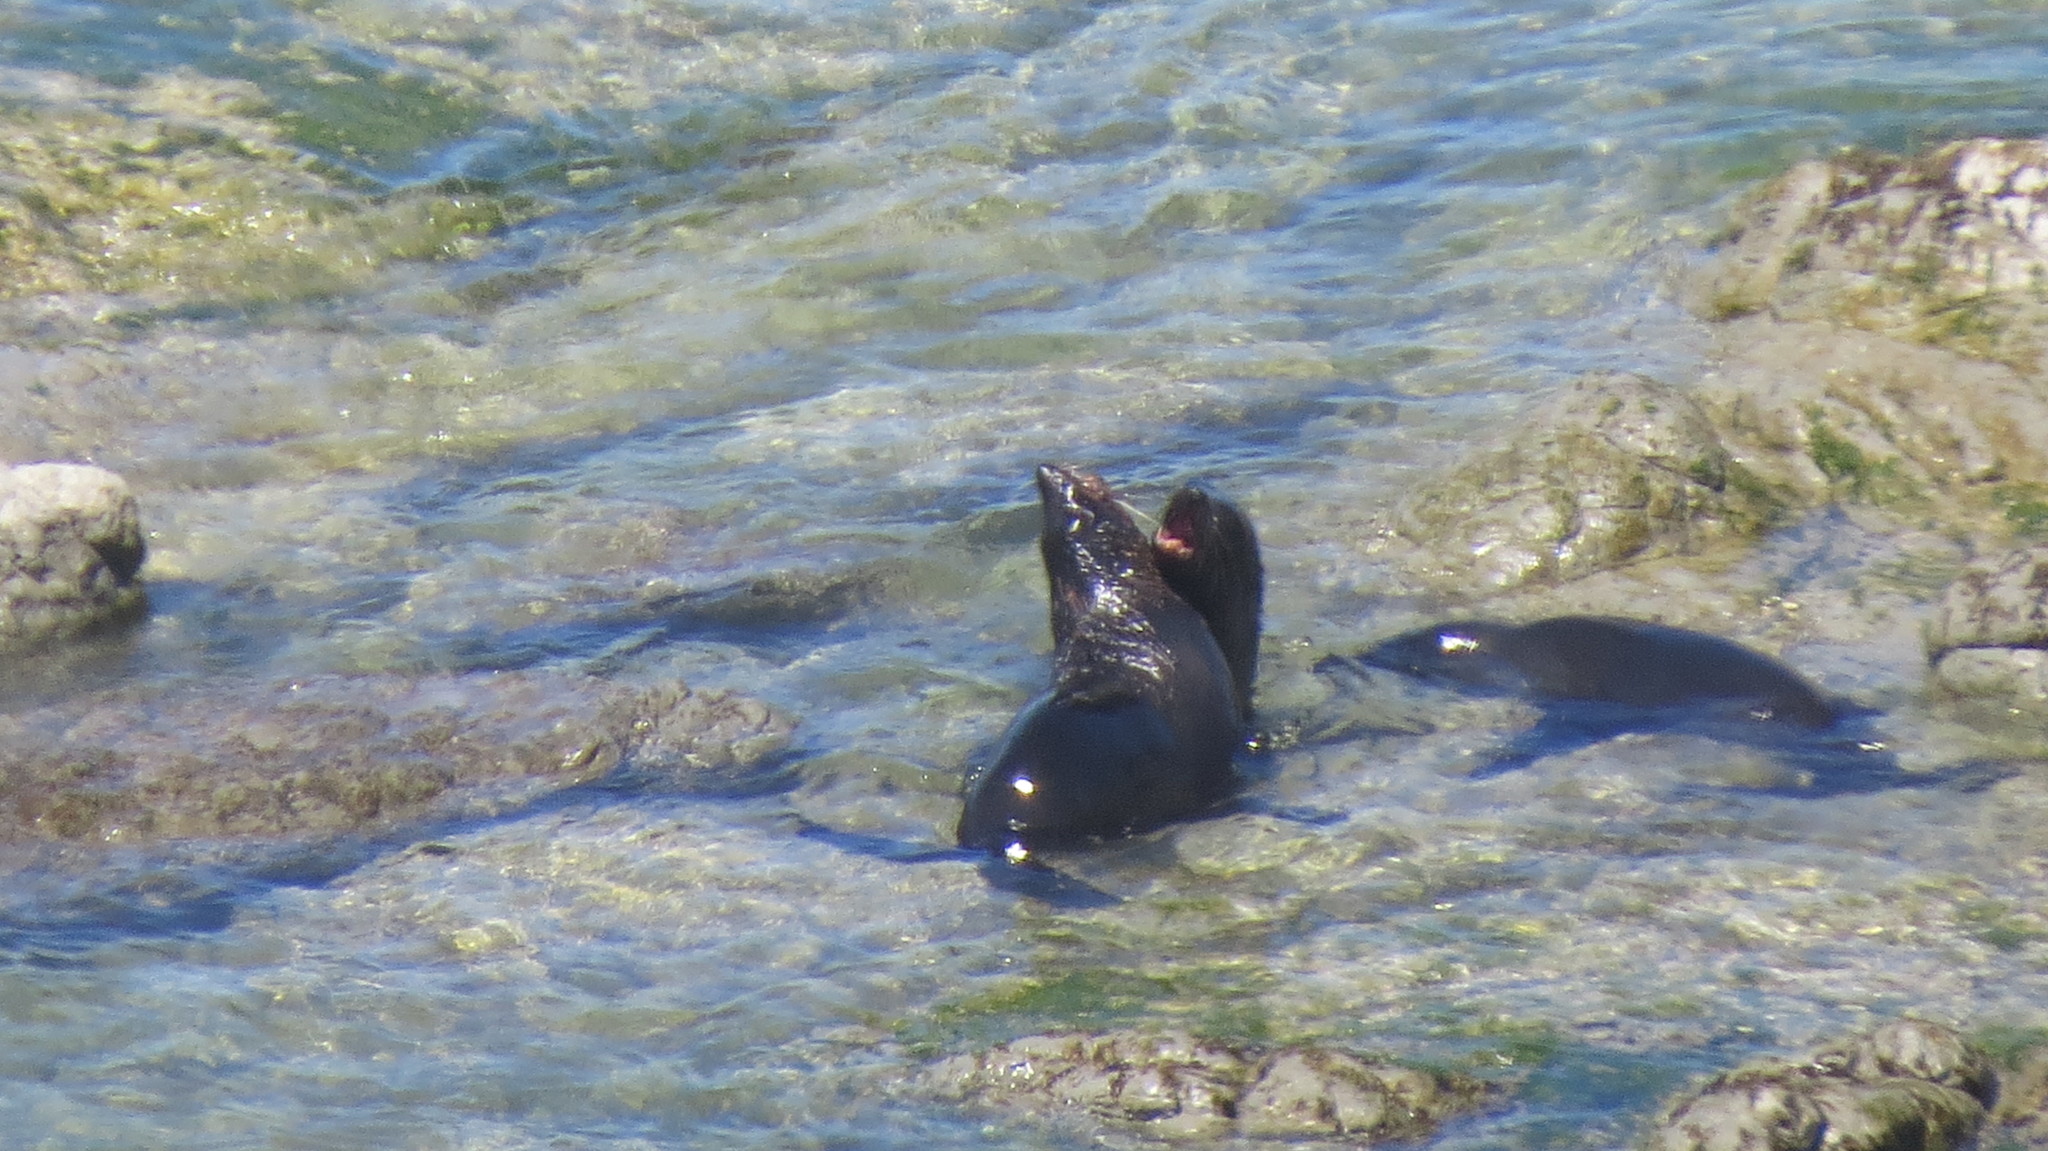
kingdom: Animalia
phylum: Chordata
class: Mammalia
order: Carnivora
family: Otariidae
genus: Arctocephalus
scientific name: Arctocephalus forsteri
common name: New zealand fur seal
